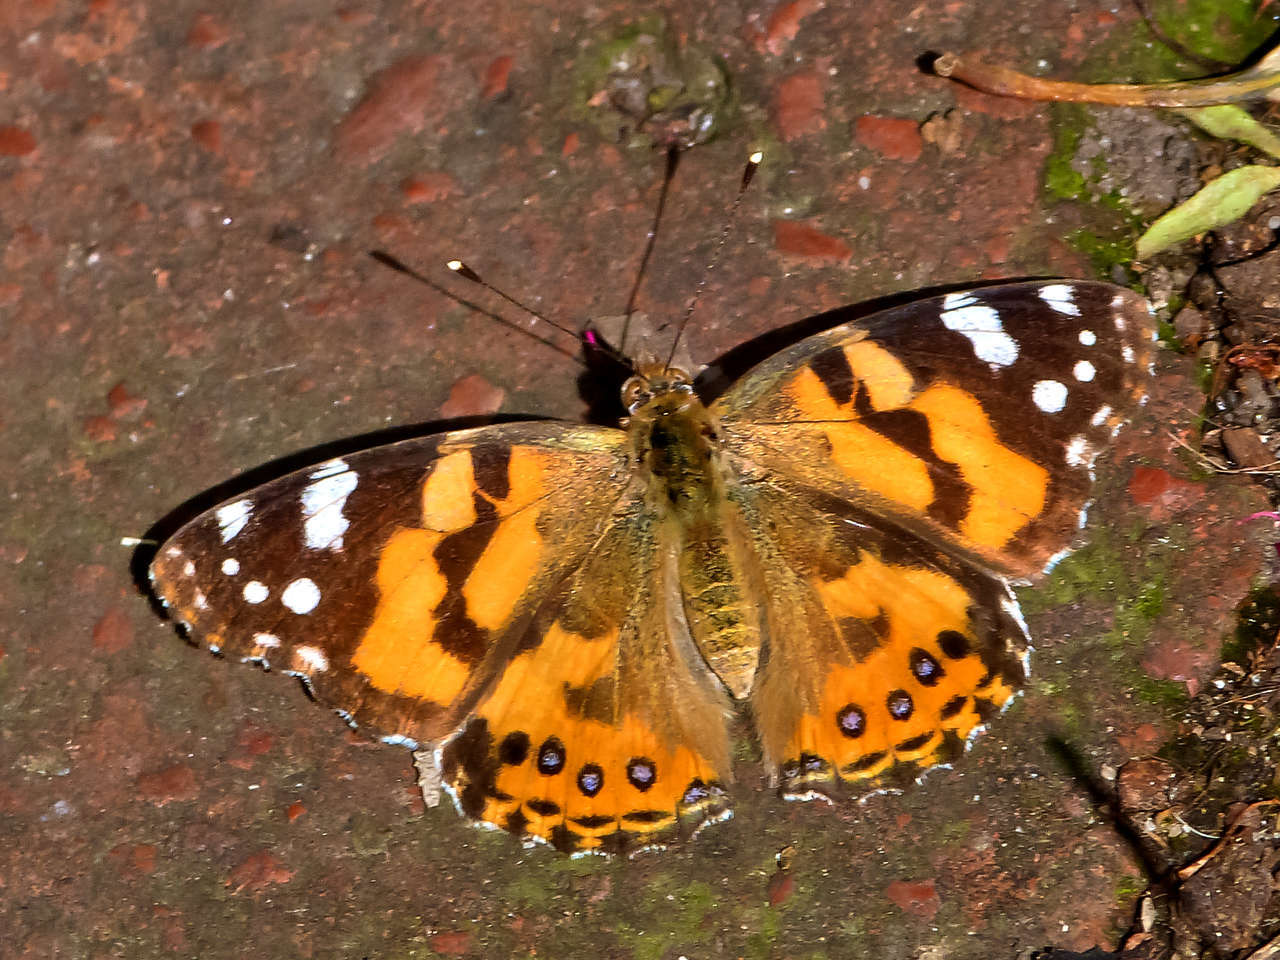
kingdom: Animalia
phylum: Arthropoda
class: Insecta
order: Lepidoptera
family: Nymphalidae
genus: Vanessa
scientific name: Vanessa kershawi
